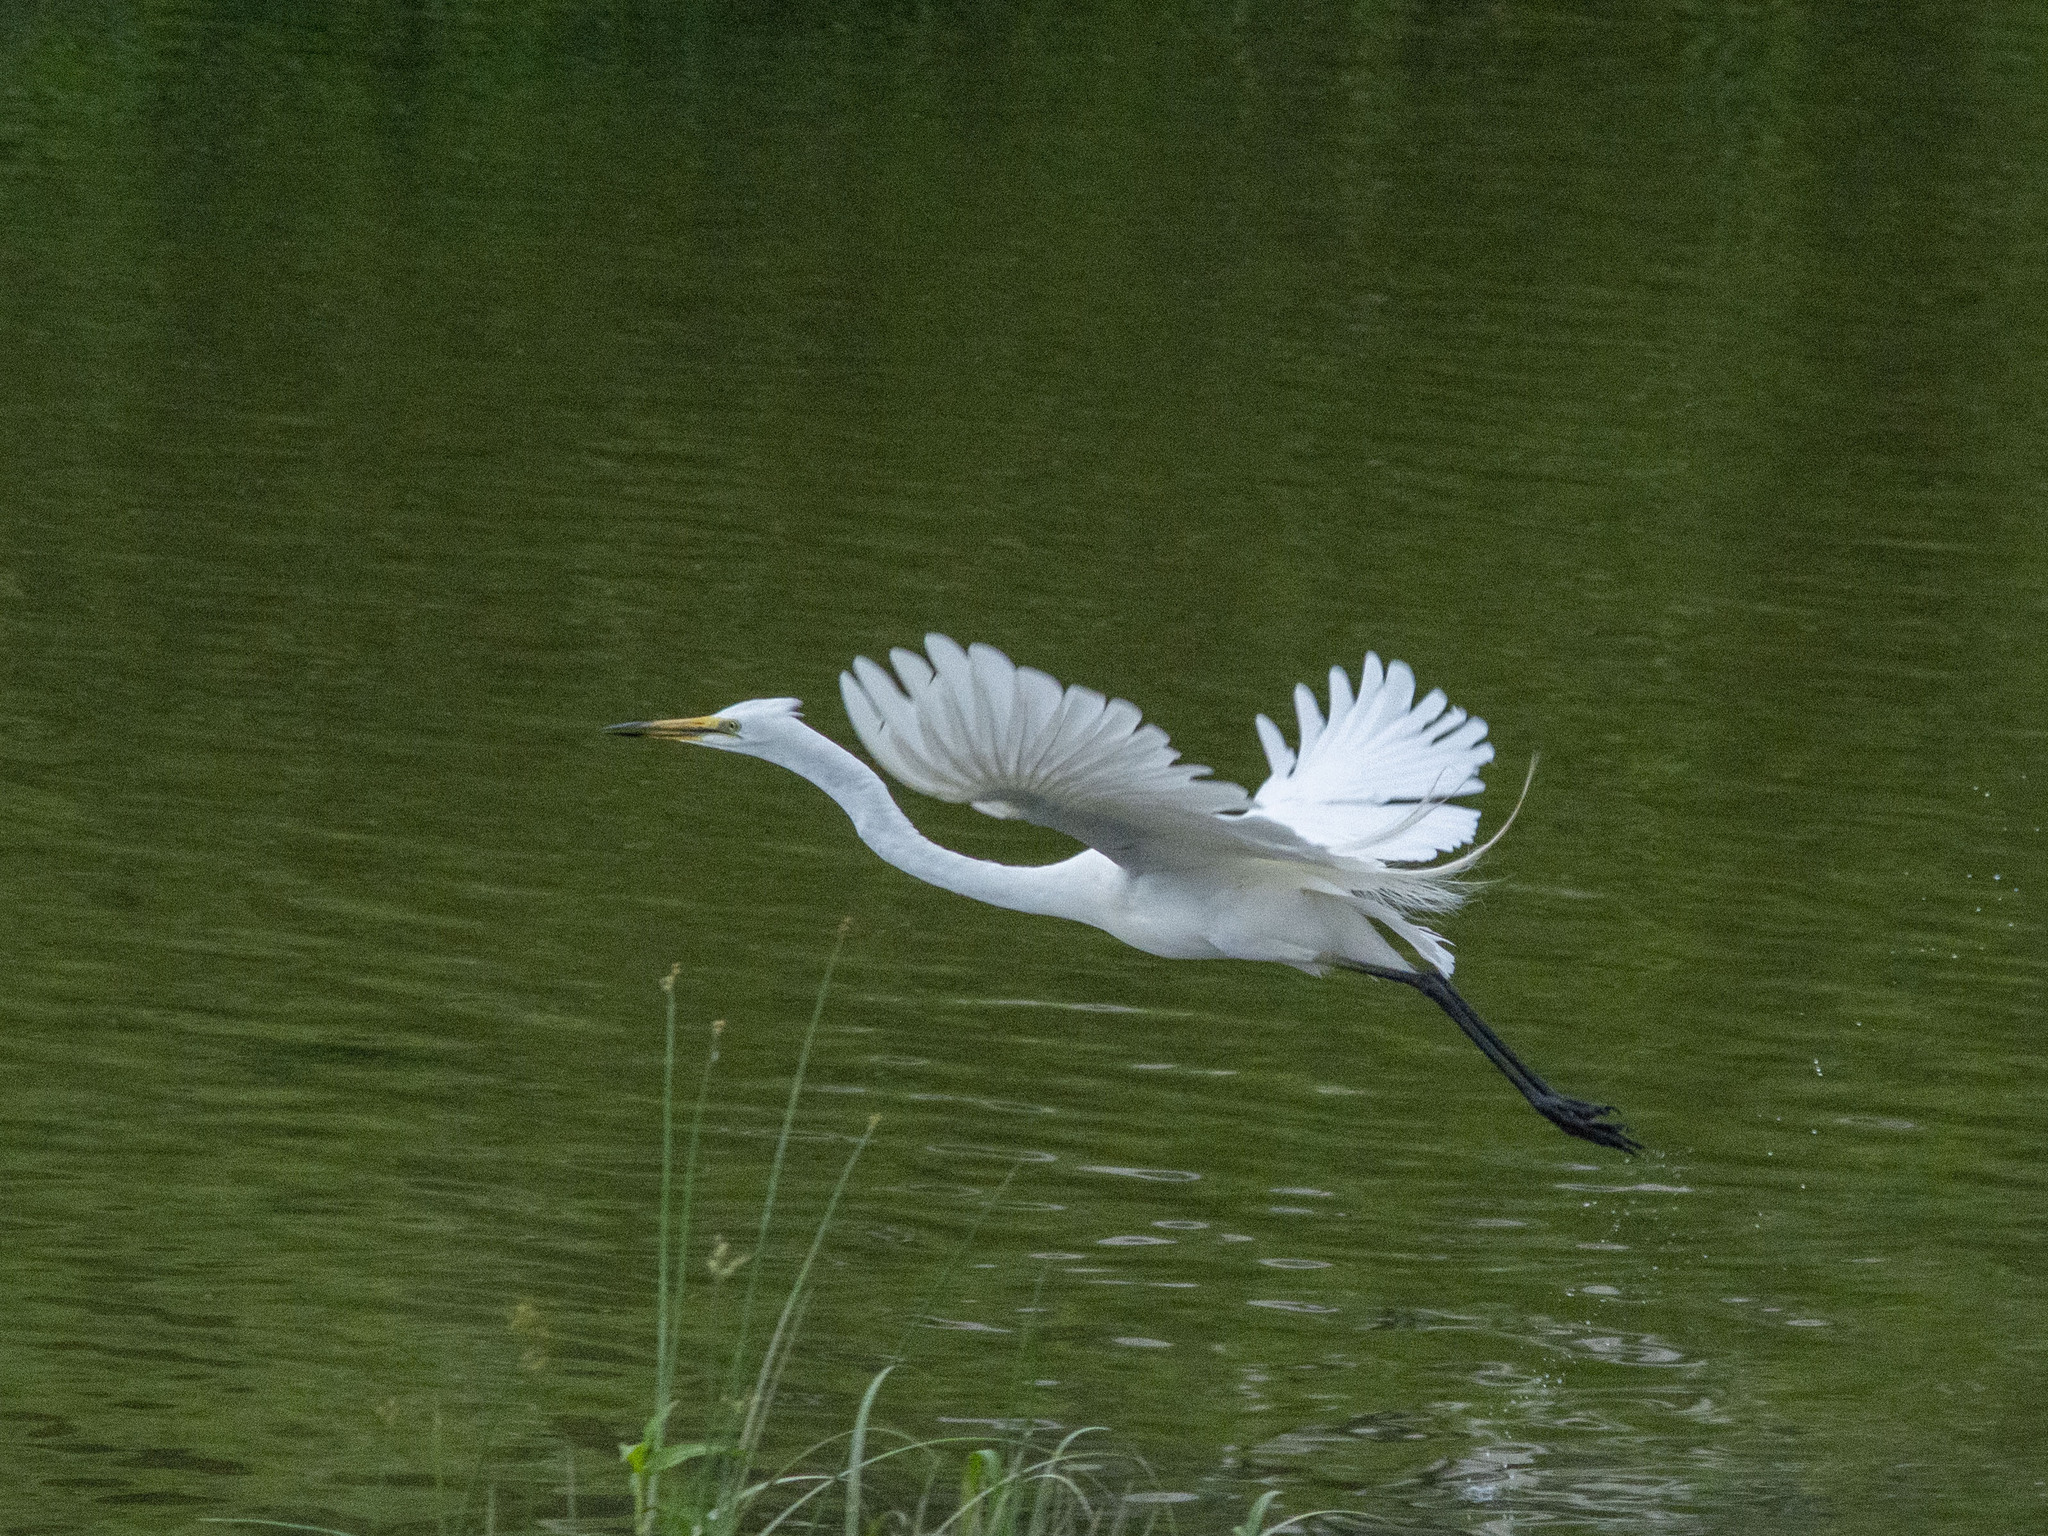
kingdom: Animalia
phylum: Chordata
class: Aves
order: Pelecaniformes
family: Ardeidae
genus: Ardea
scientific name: Ardea alba
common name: Great egret
